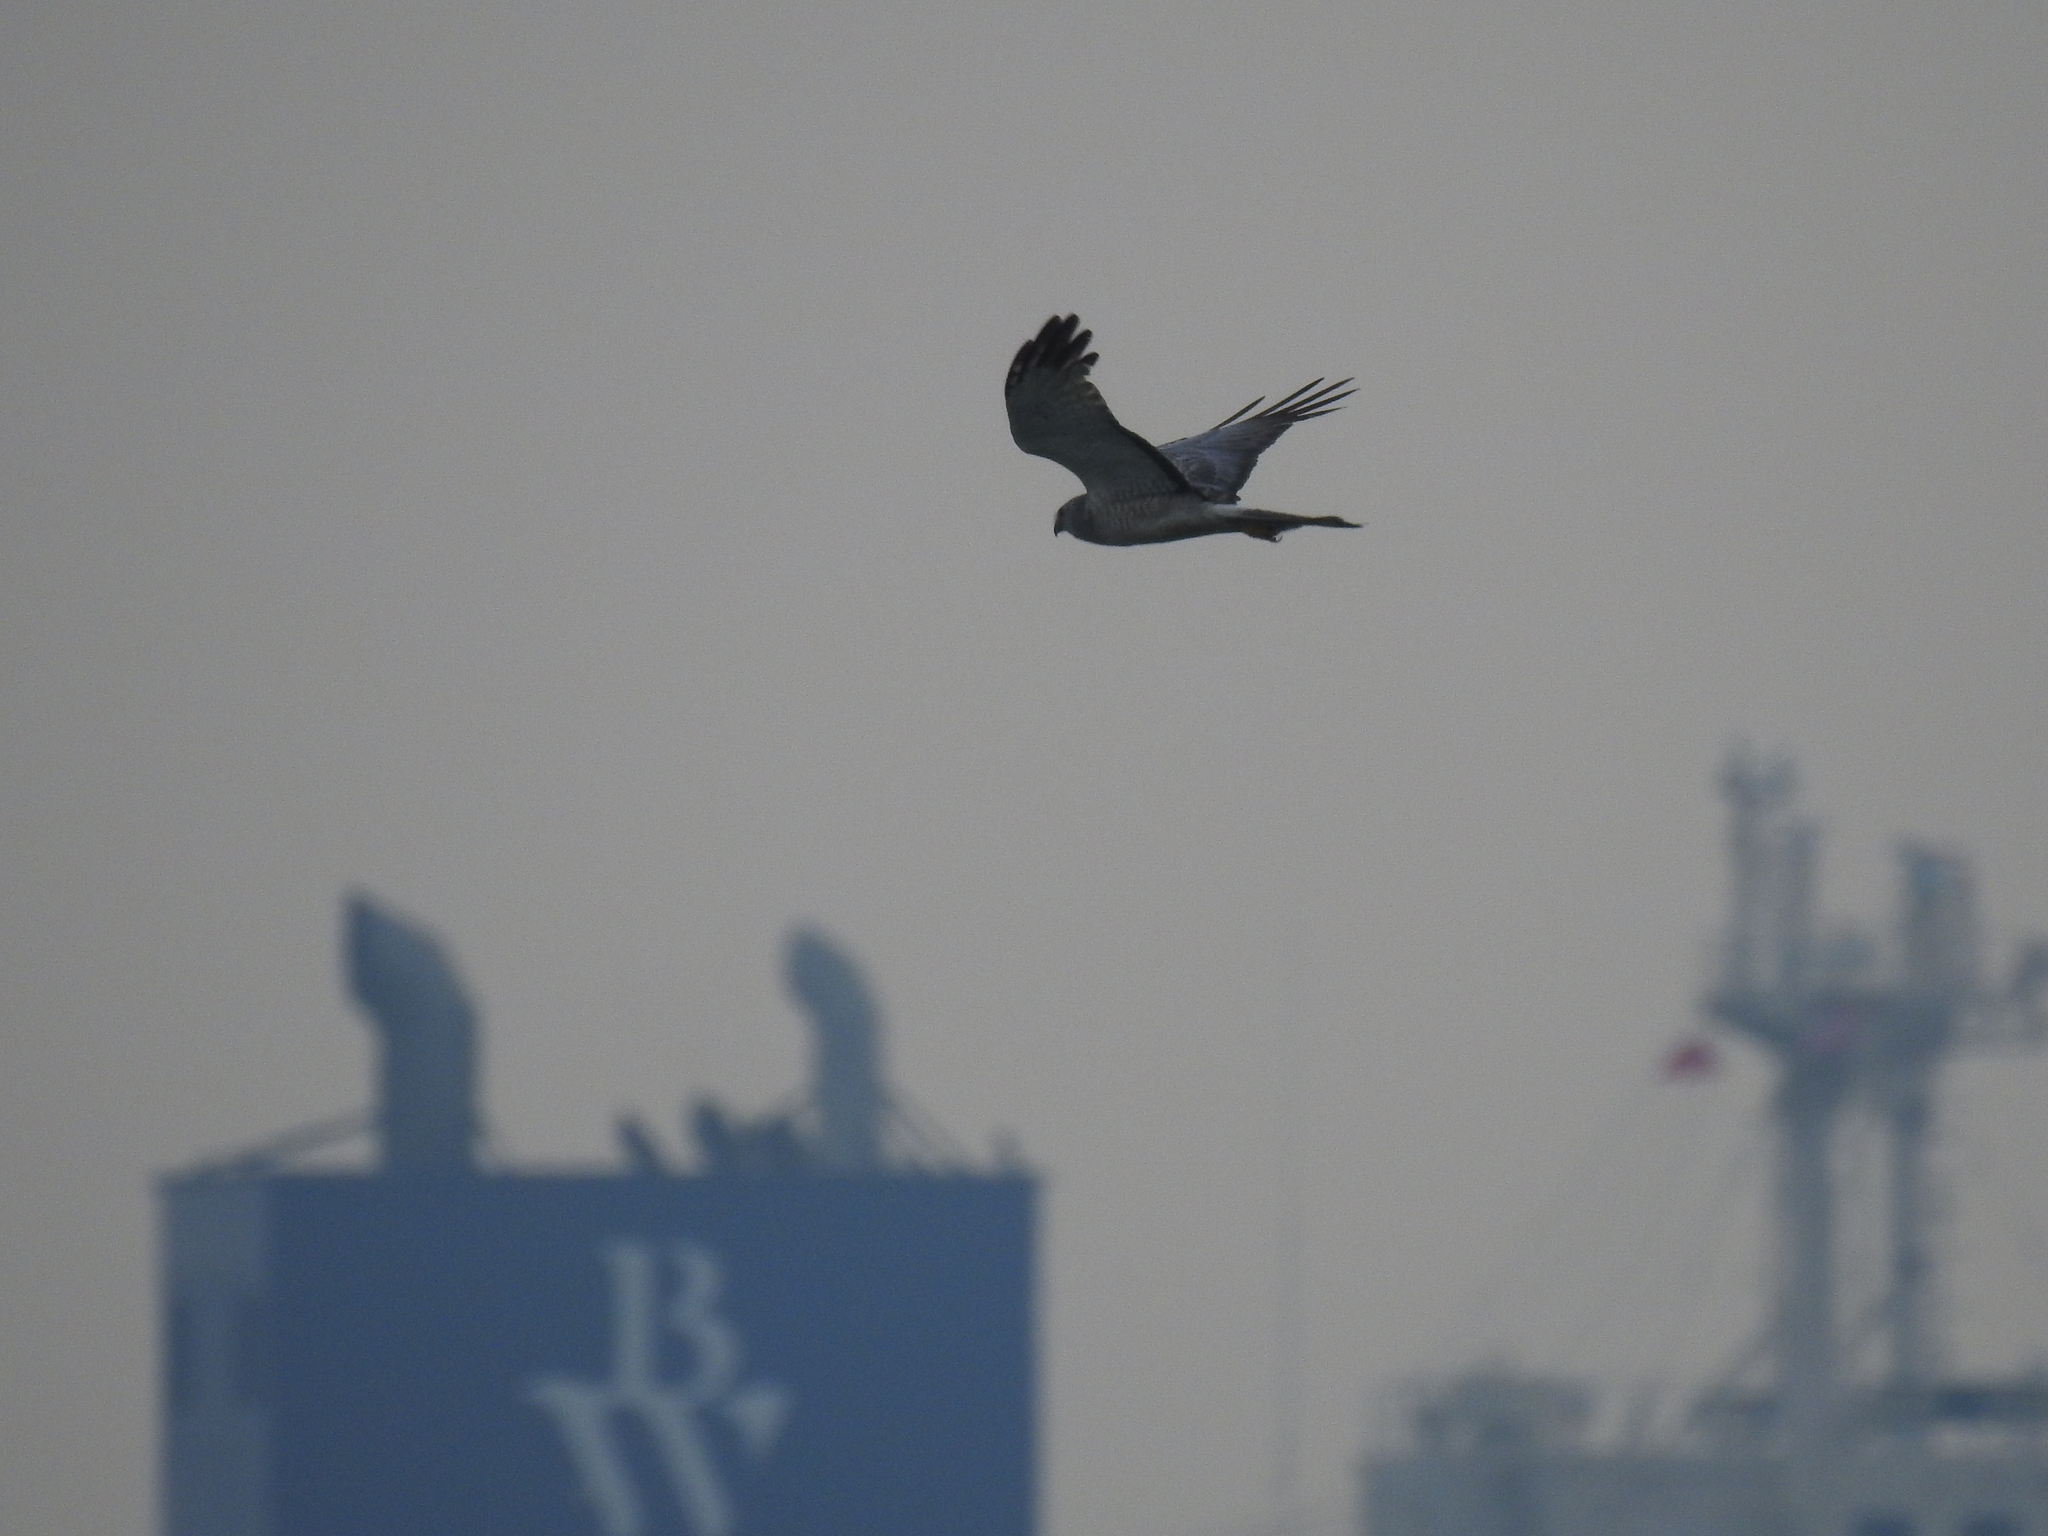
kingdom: Animalia
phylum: Chordata
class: Aves
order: Accipitriformes
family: Accipitridae
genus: Circus
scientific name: Circus cyaneus
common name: Hen harrier
